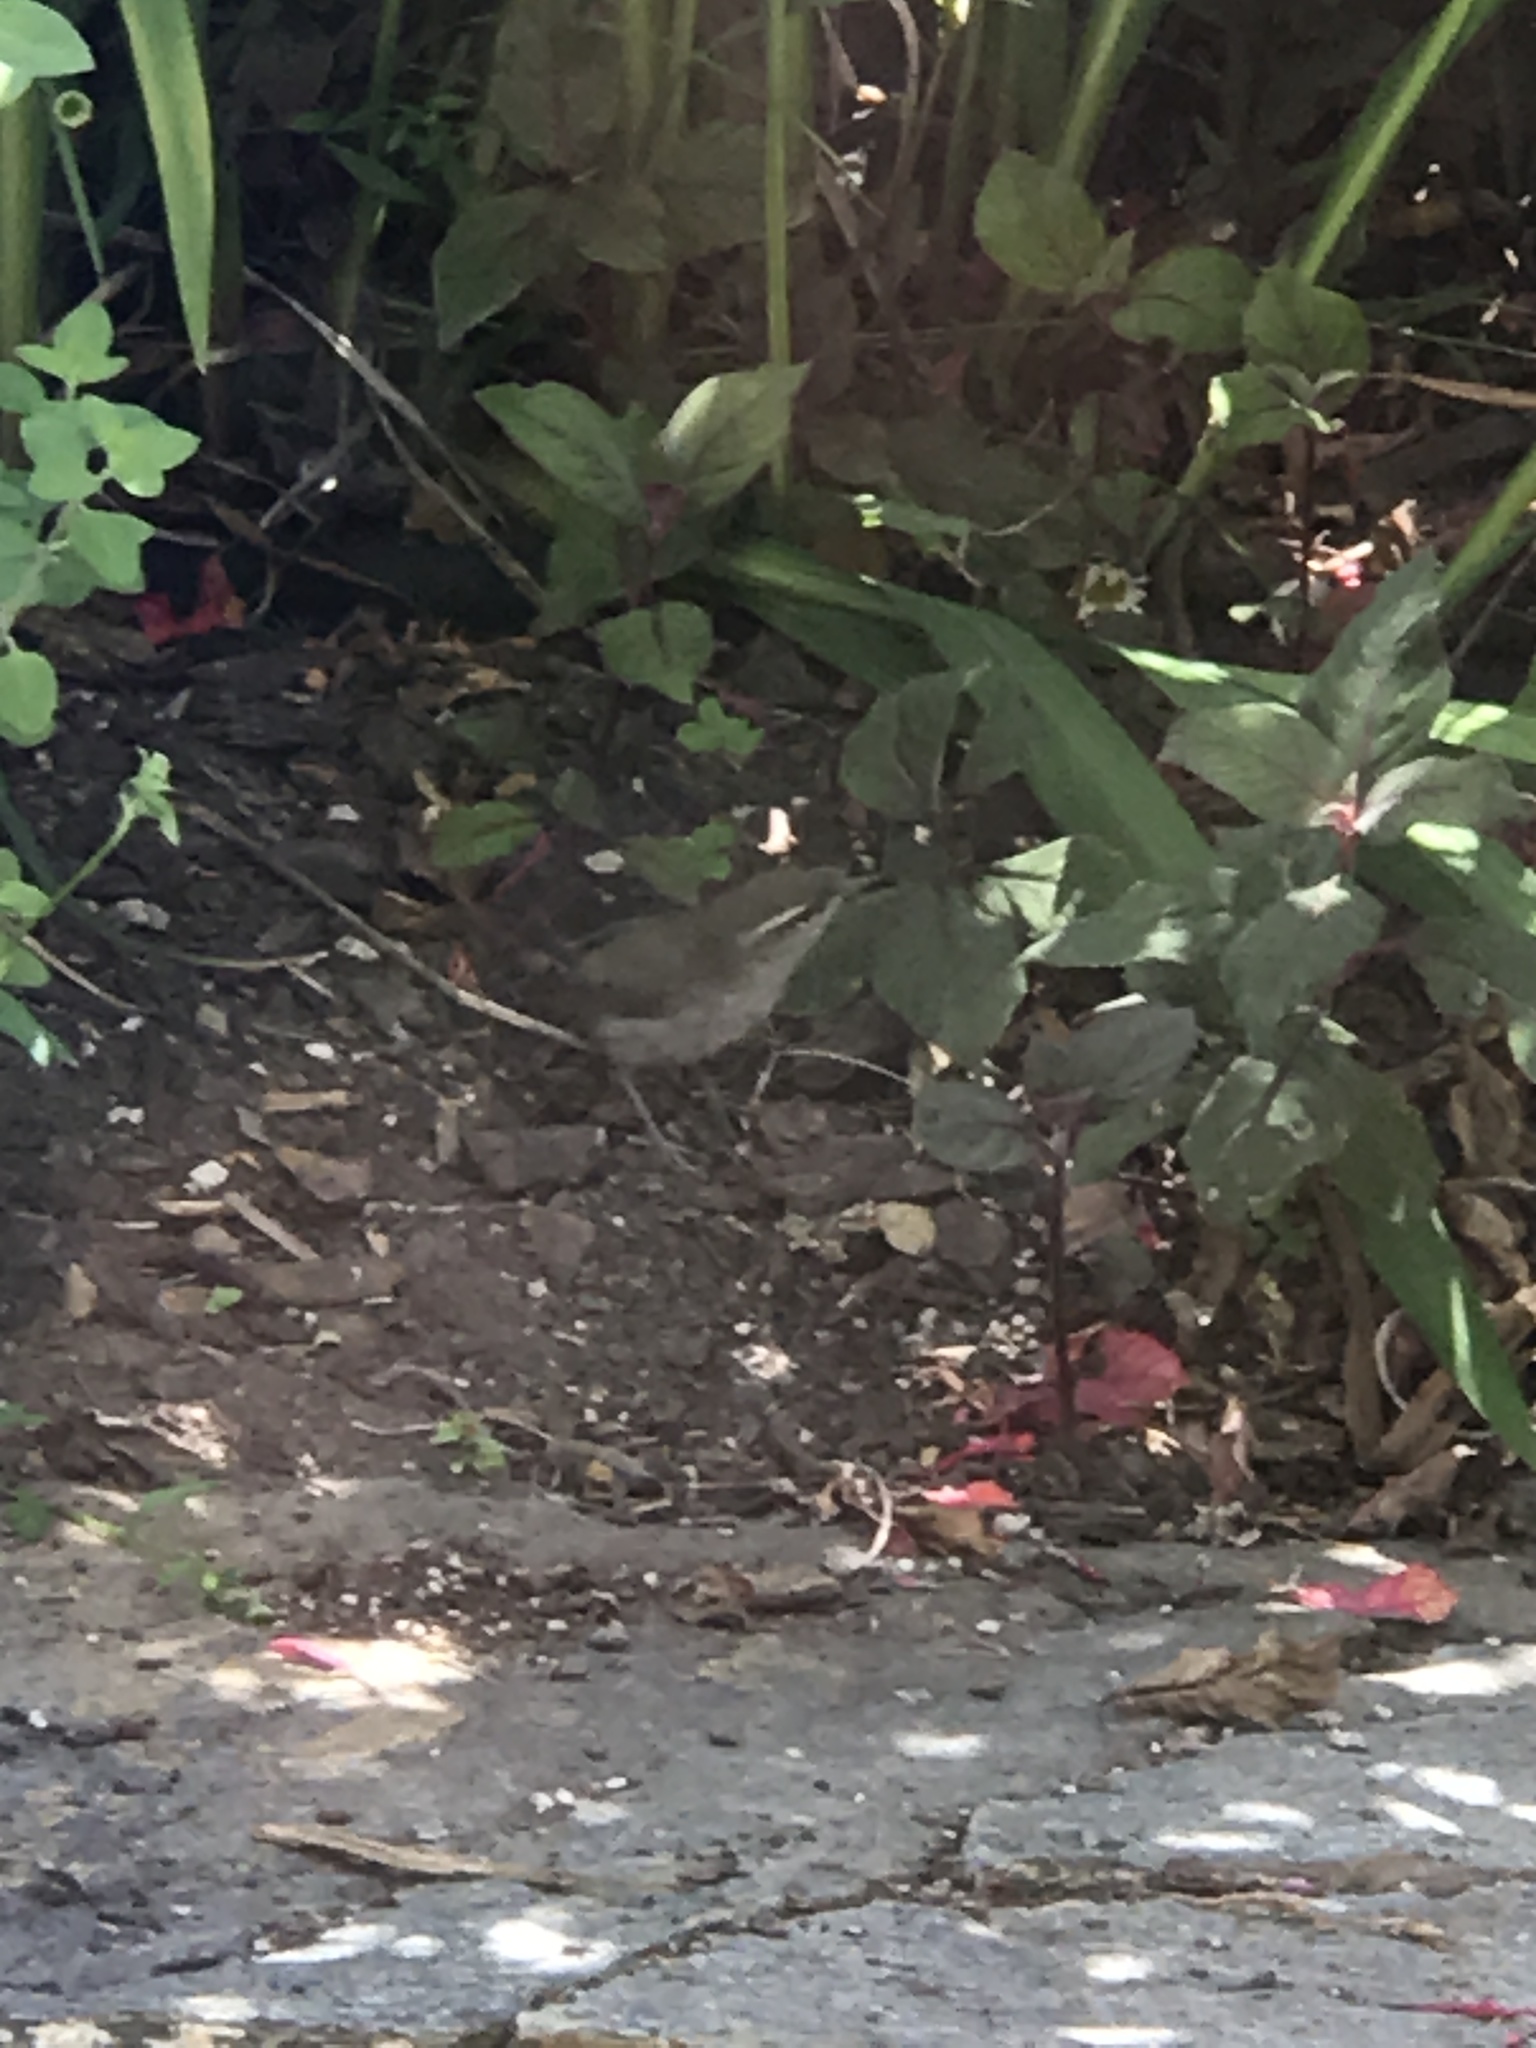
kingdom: Animalia
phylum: Chordata
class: Aves
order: Passeriformes
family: Troglodytidae
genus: Thryomanes
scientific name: Thryomanes bewickii
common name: Bewick's wren
